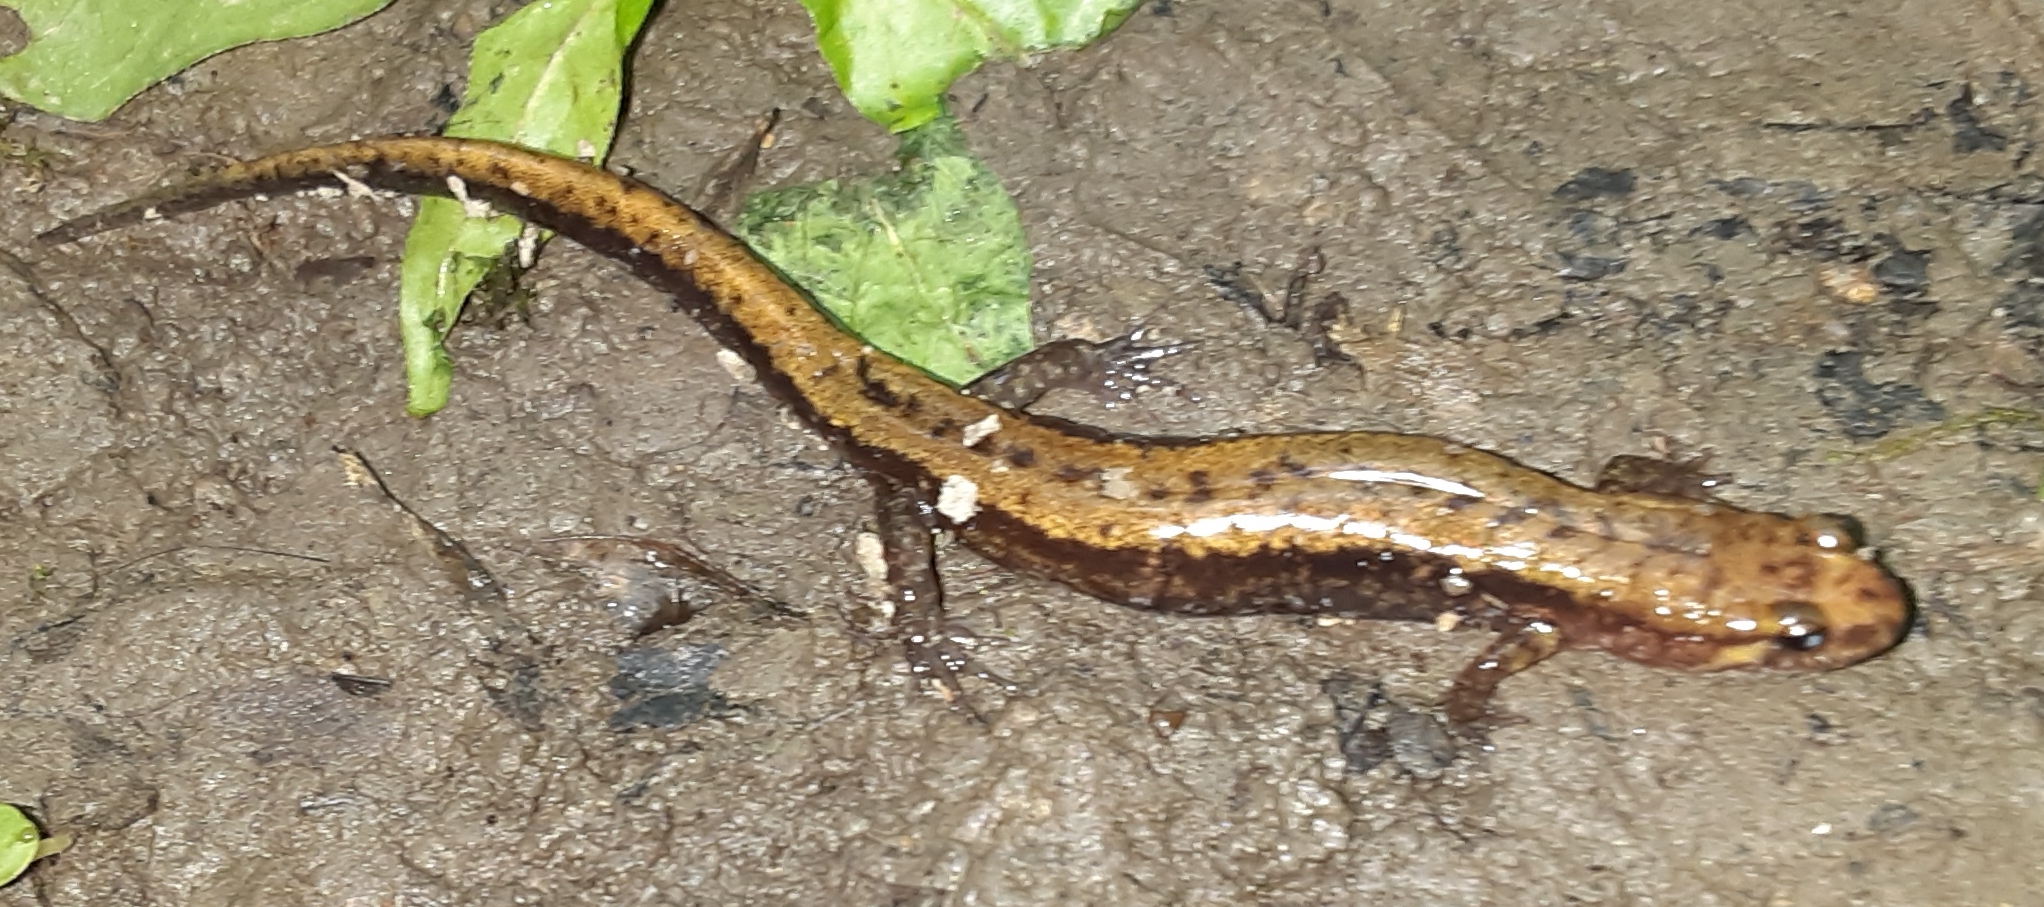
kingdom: Animalia
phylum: Chordata
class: Amphibia
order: Caudata
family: Plethodontidae
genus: Desmognathus
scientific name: Desmognathus ochrophaeus
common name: Allegheny mountain dusky salamander
